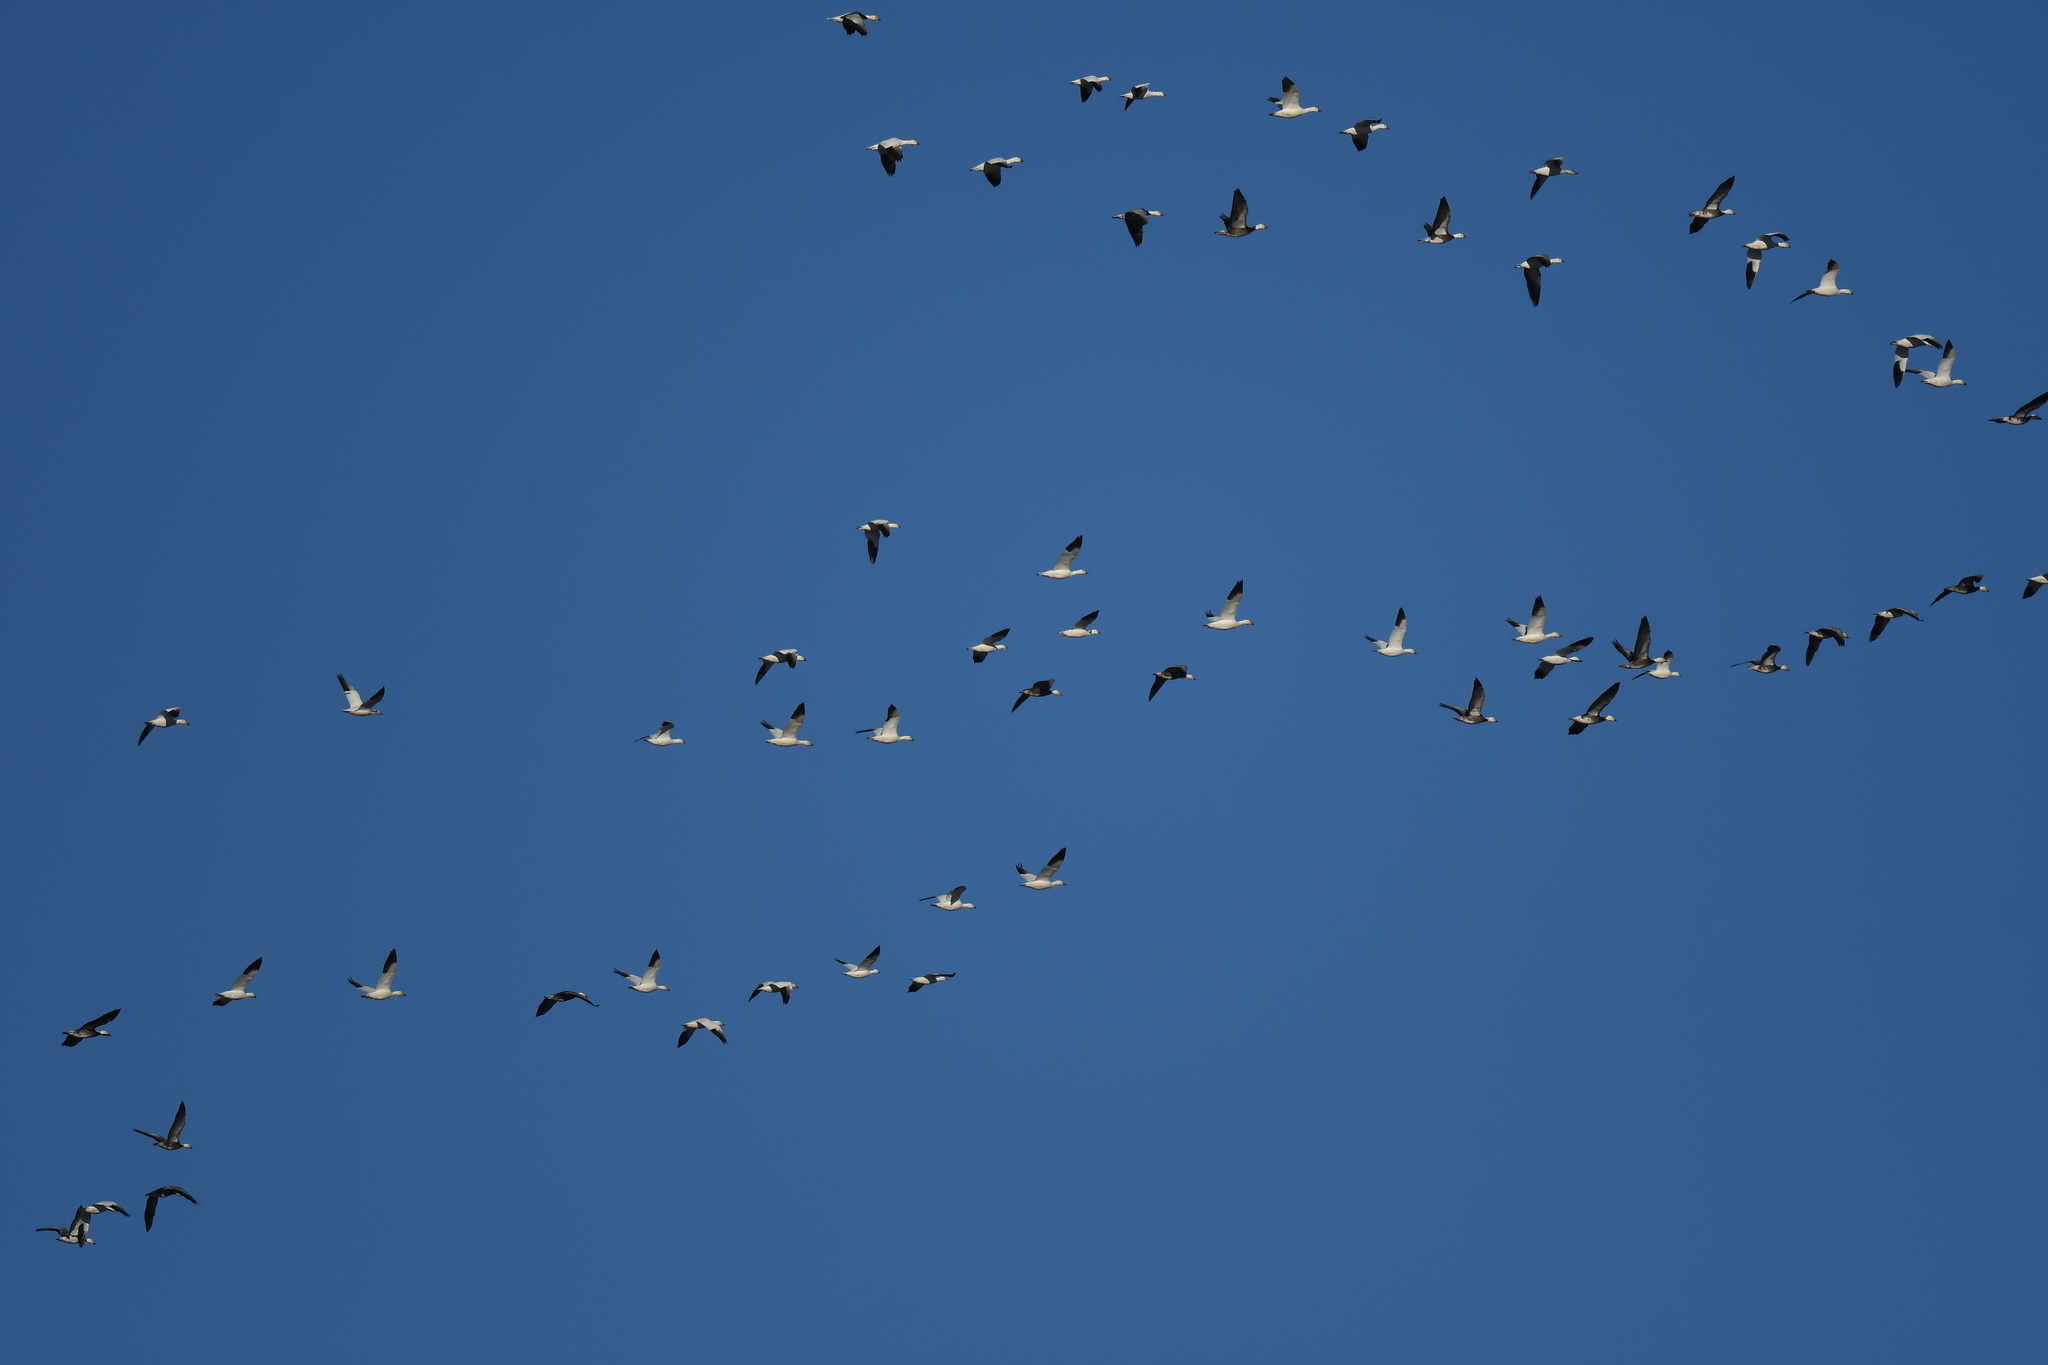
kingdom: Animalia
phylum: Chordata
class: Aves
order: Anseriformes
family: Anatidae
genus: Anser
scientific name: Anser caerulescens
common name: Snow goose
